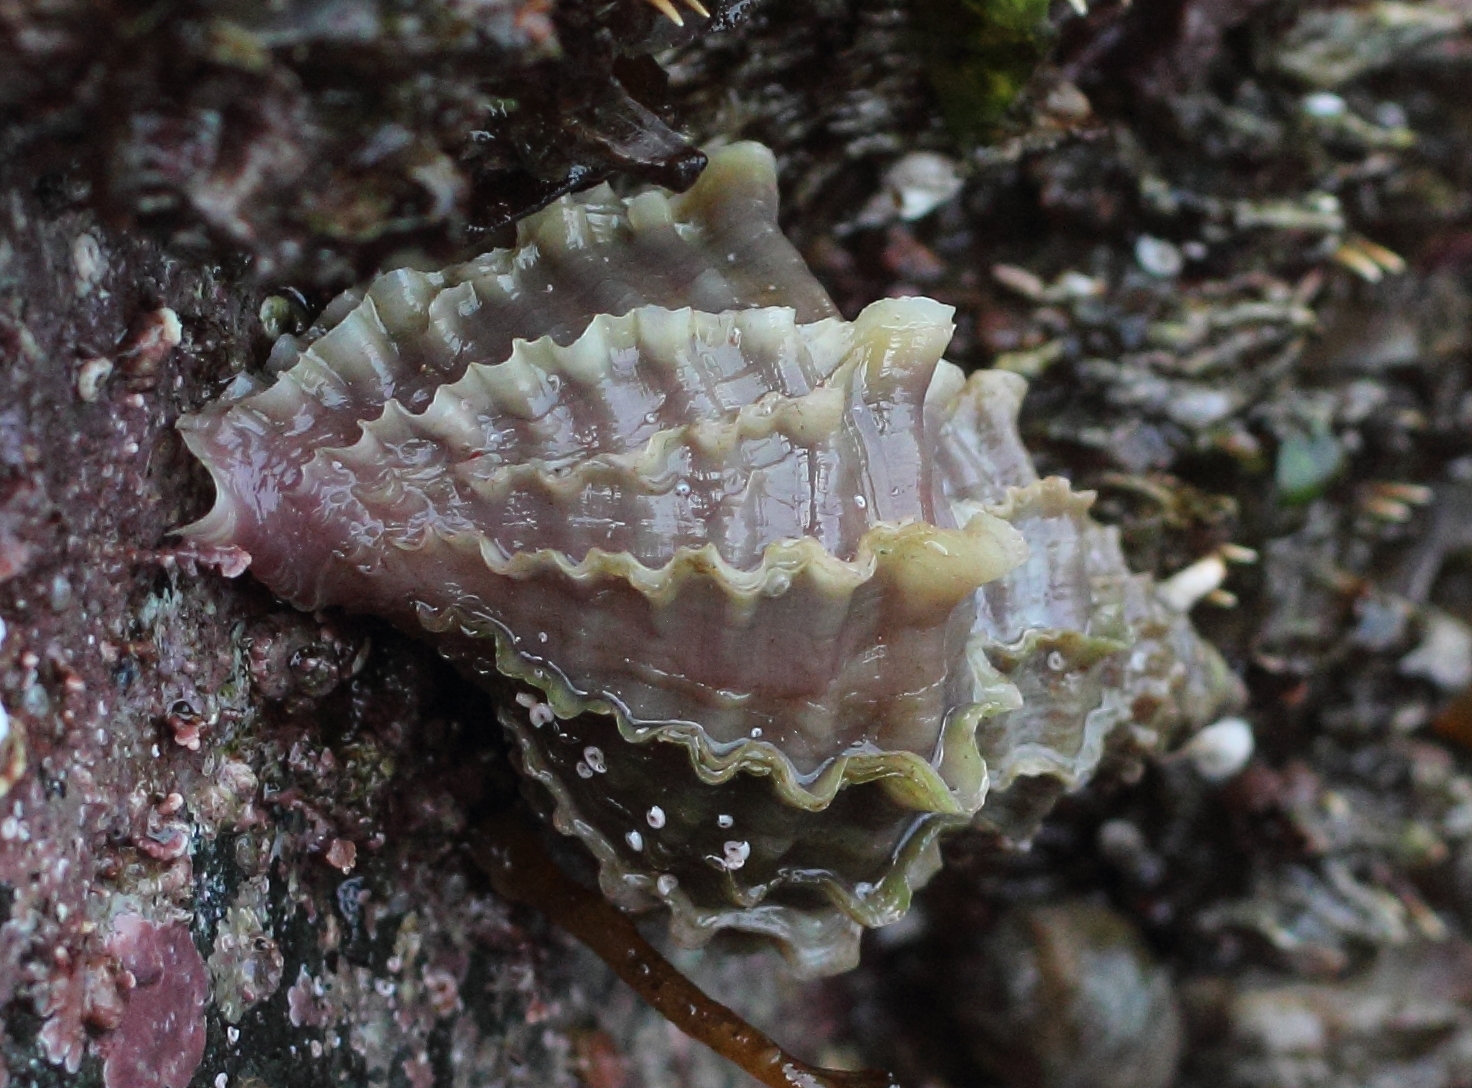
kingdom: Animalia
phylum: Mollusca
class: Gastropoda
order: Neogastropoda
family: Muricidae
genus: Nucella
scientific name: Nucella lamellosa
